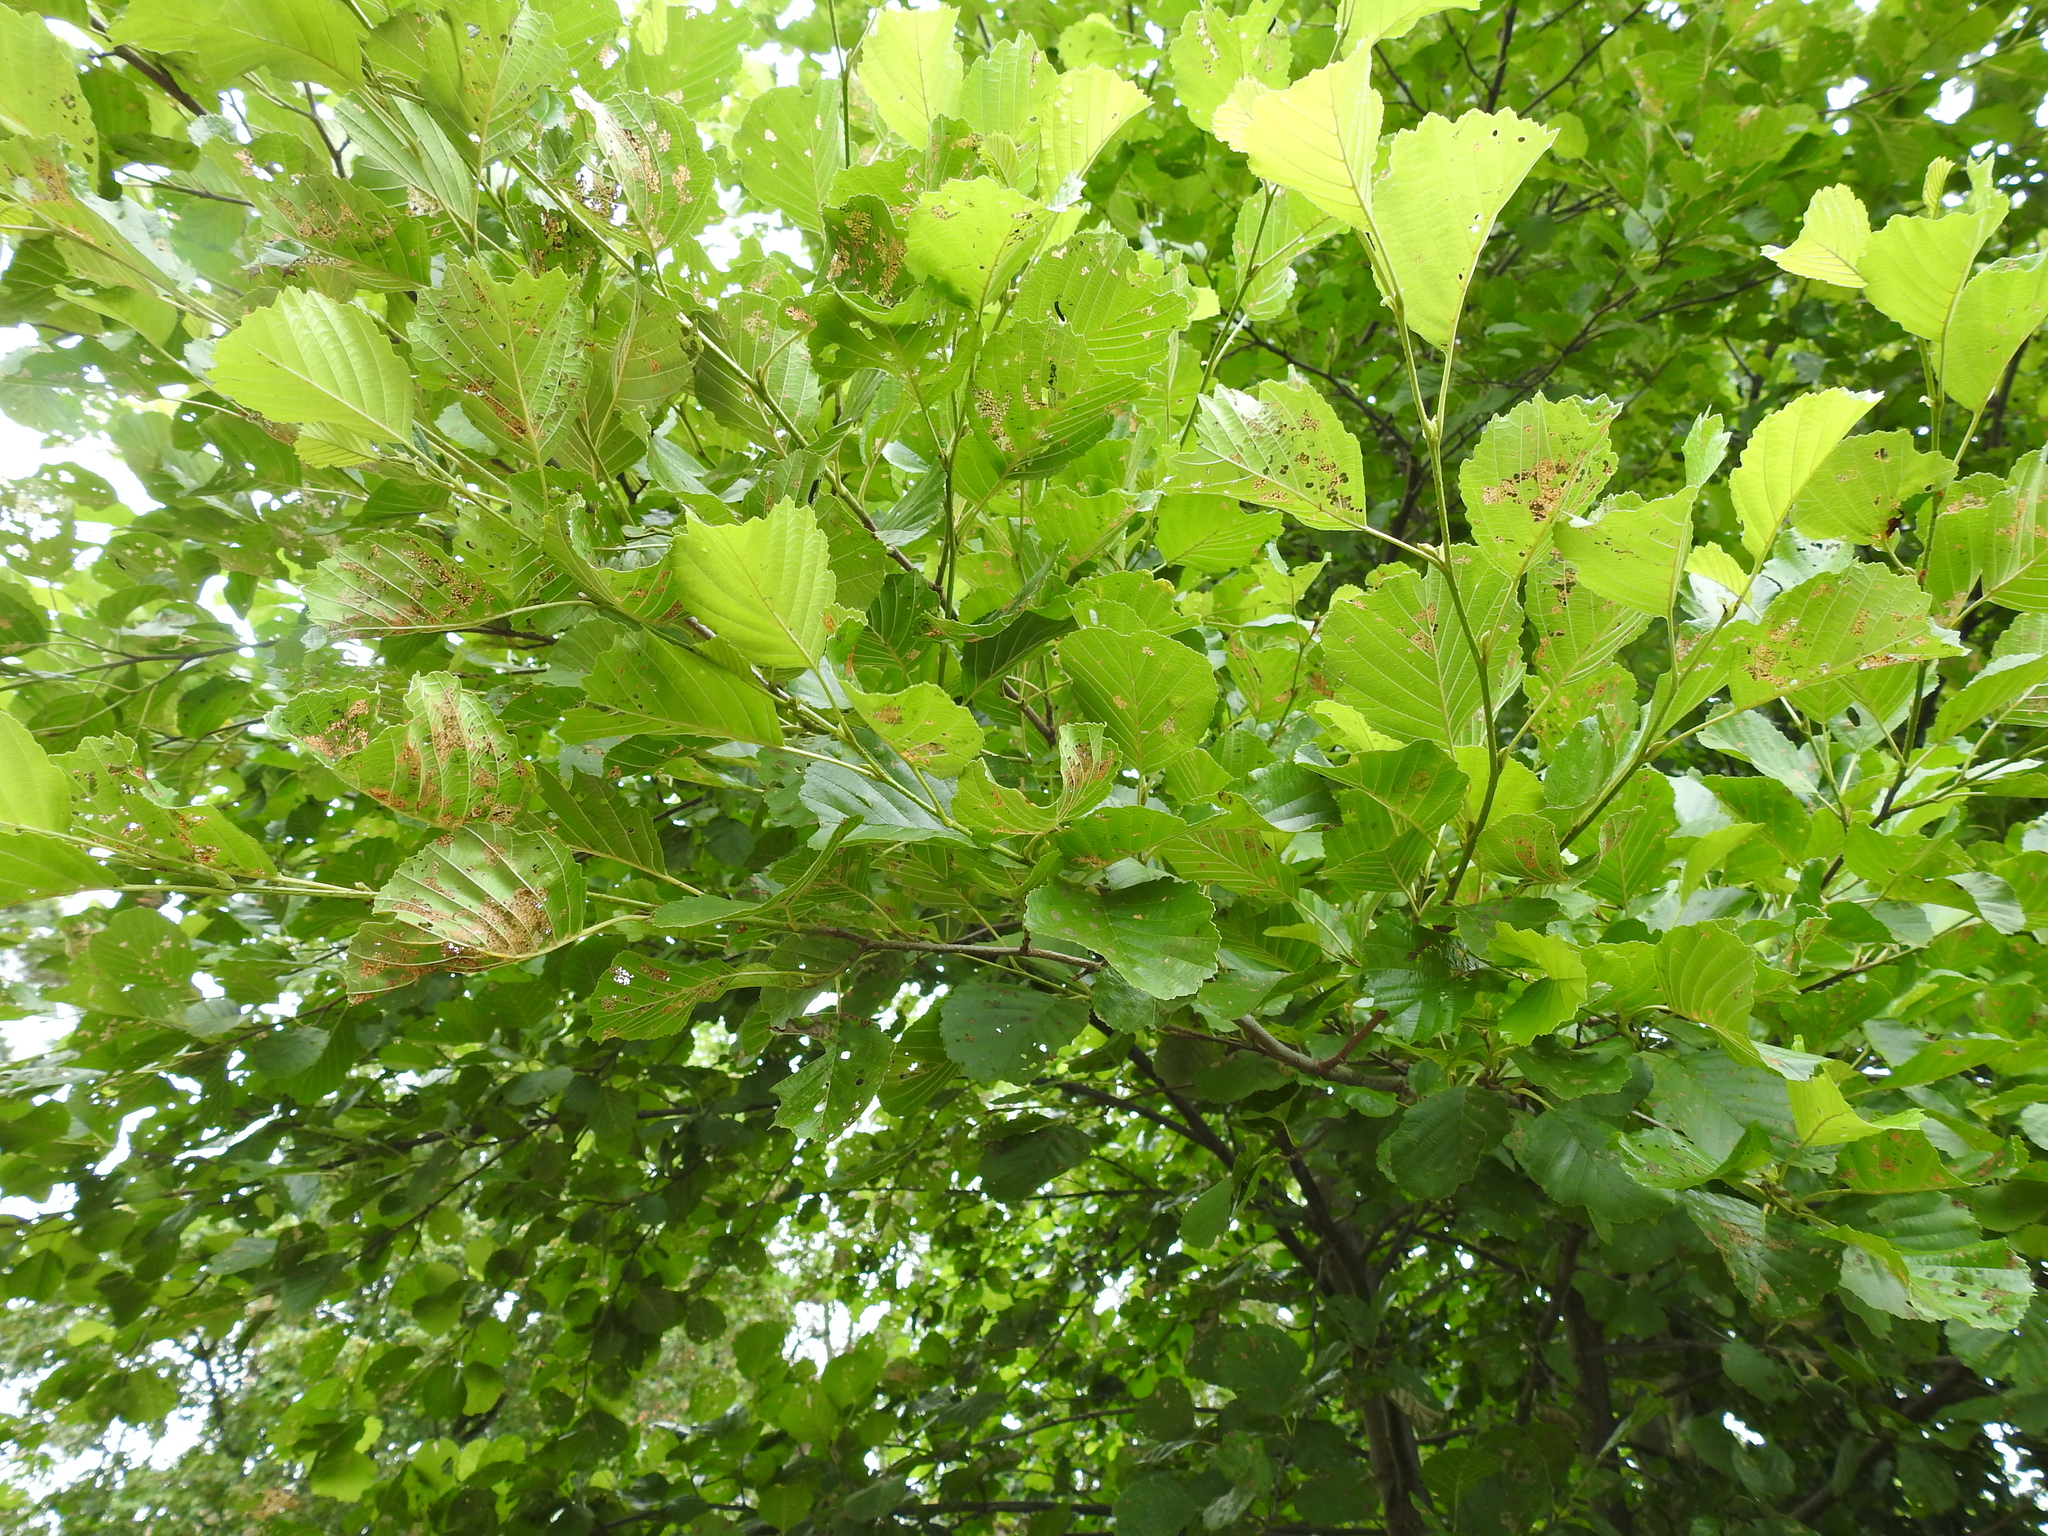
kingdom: Plantae
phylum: Tracheophyta
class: Magnoliopsida
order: Fagales
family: Betulaceae
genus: Alnus
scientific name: Alnus glutinosa
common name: Black alder
